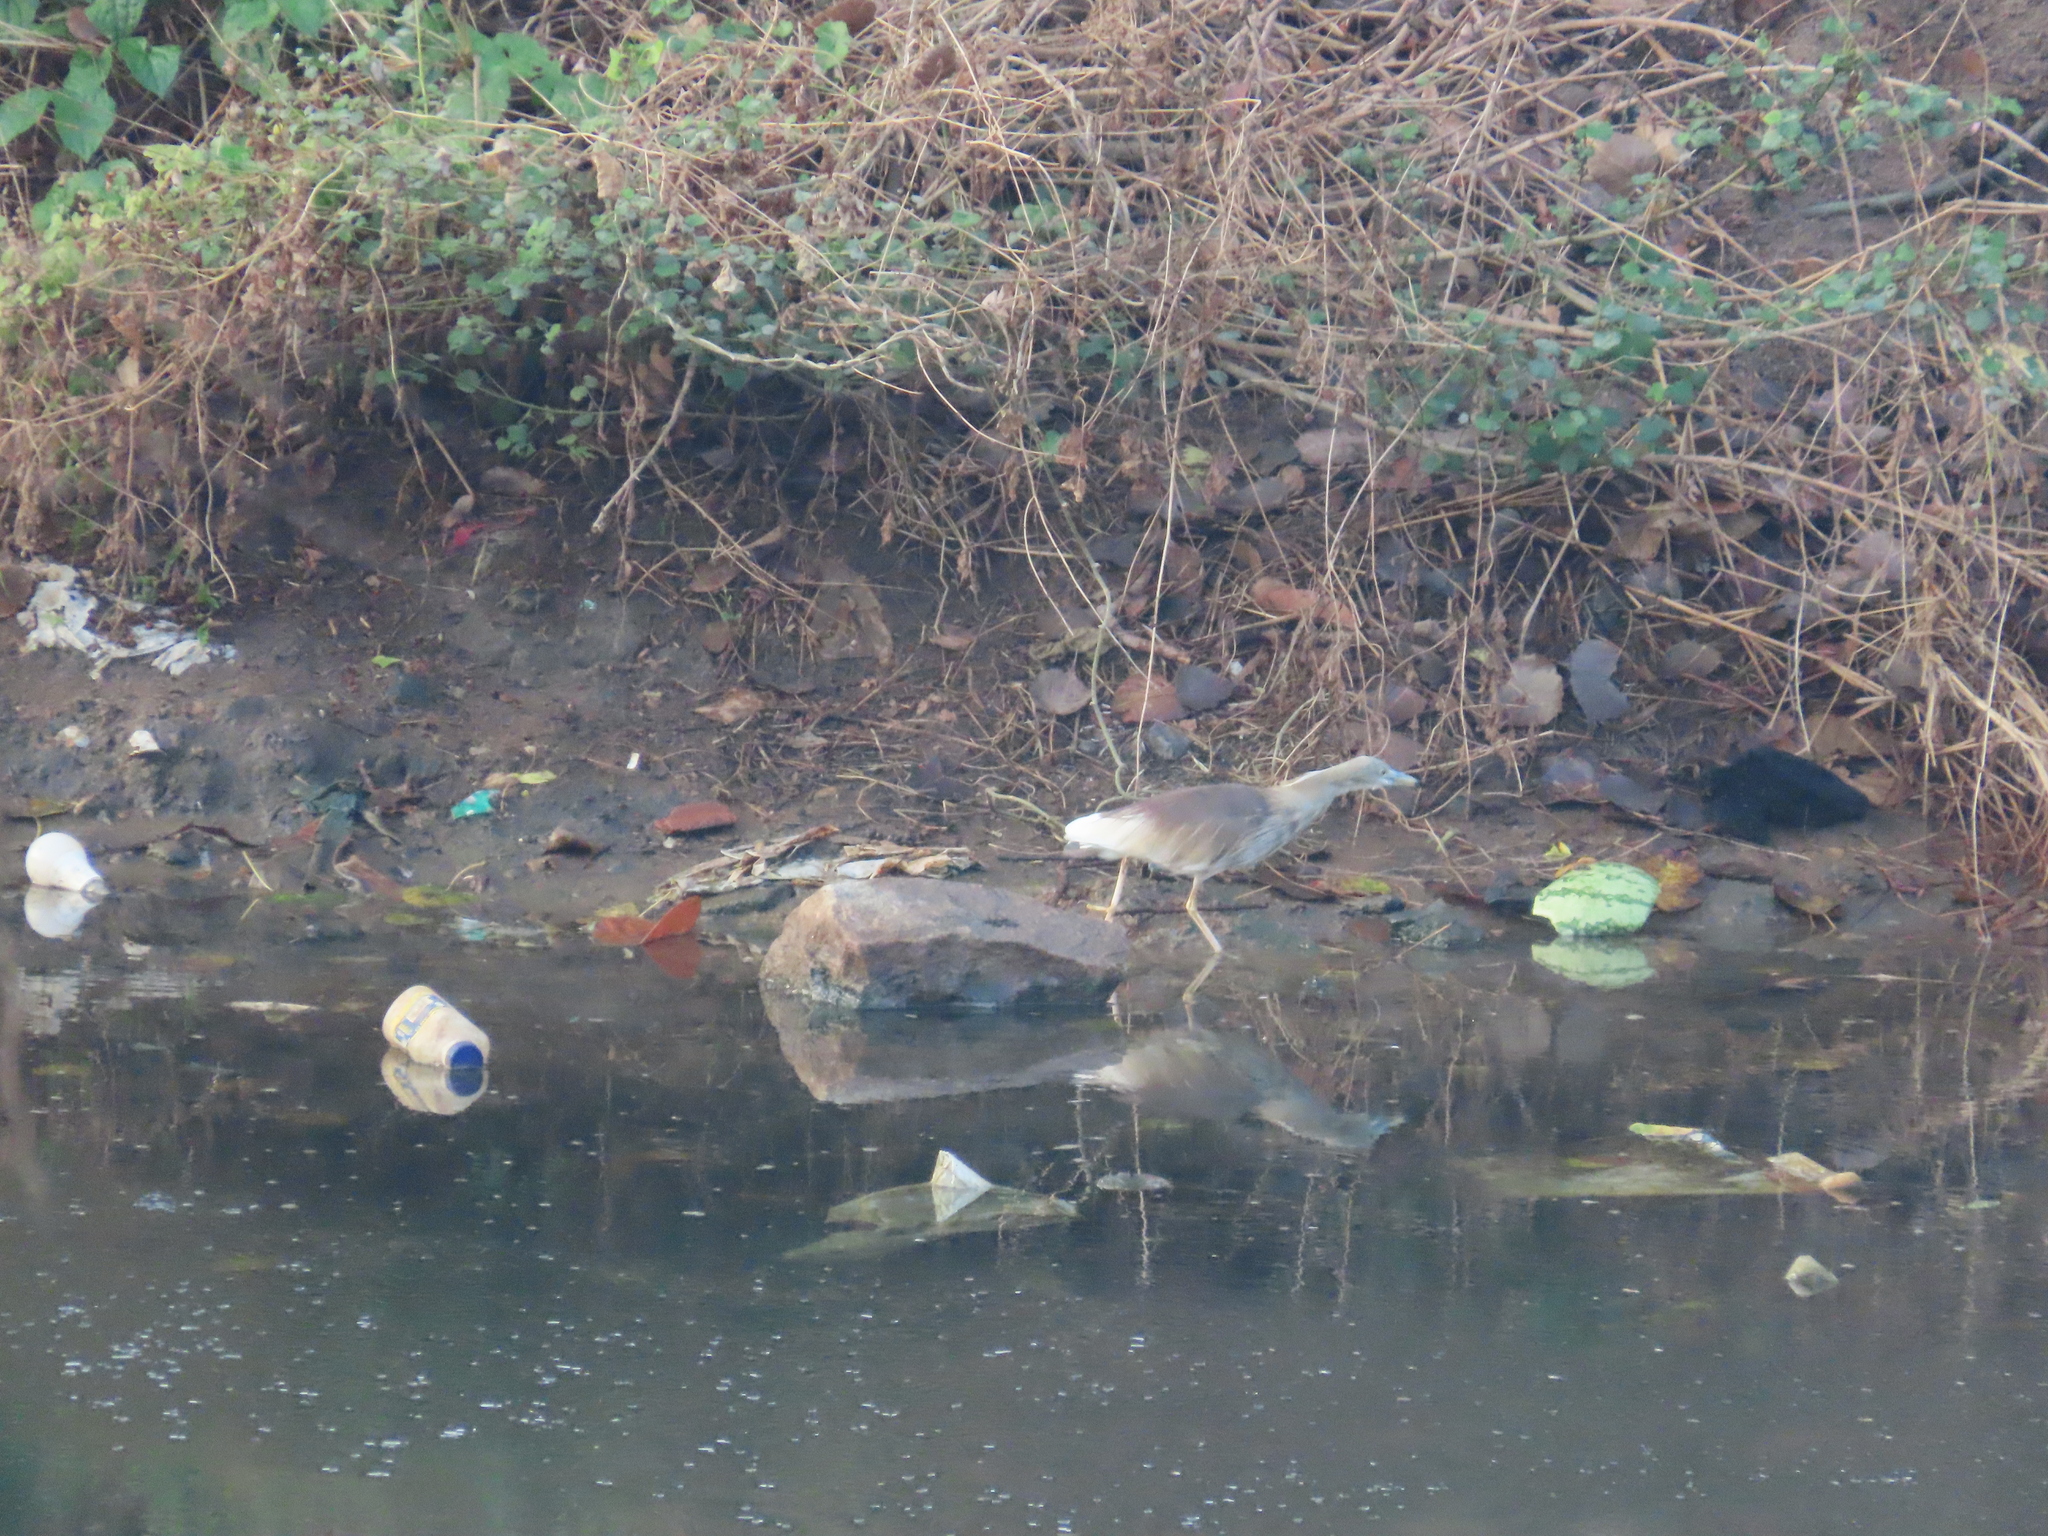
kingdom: Animalia
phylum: Chordata
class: Aves
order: Pelecaniformes
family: Ardeidae
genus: Ardeola
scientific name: Ardeola grayii
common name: Indian pond heron
